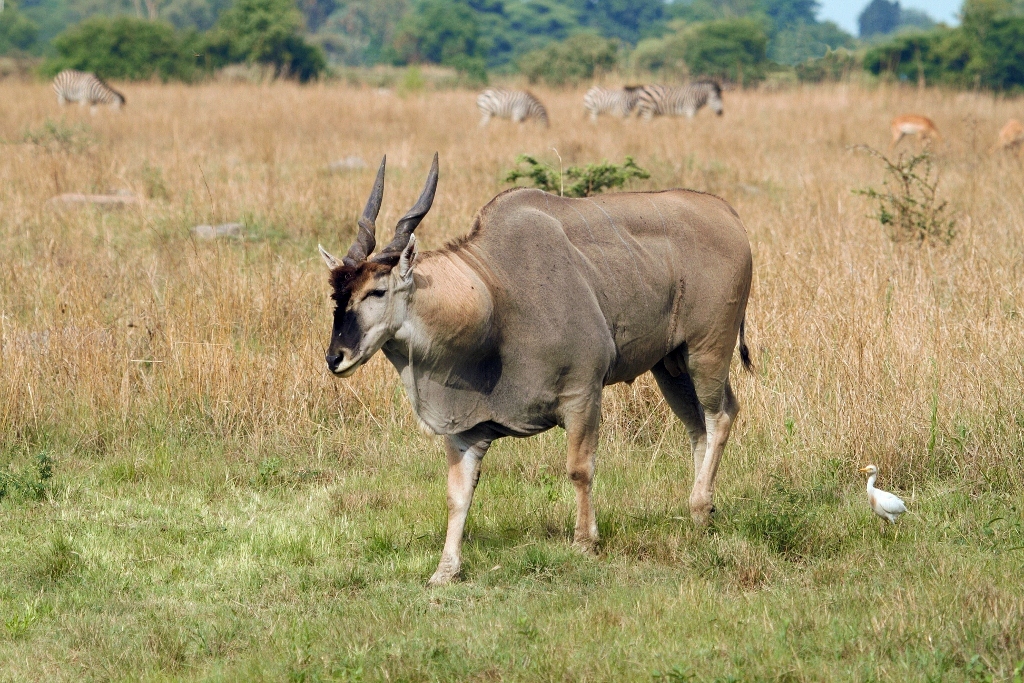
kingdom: Animalia
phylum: Chordata
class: Mammalia
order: Artiodactyla
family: Bovidae
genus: Taurotragus
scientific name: Taurotragus oryx
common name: Common eland
